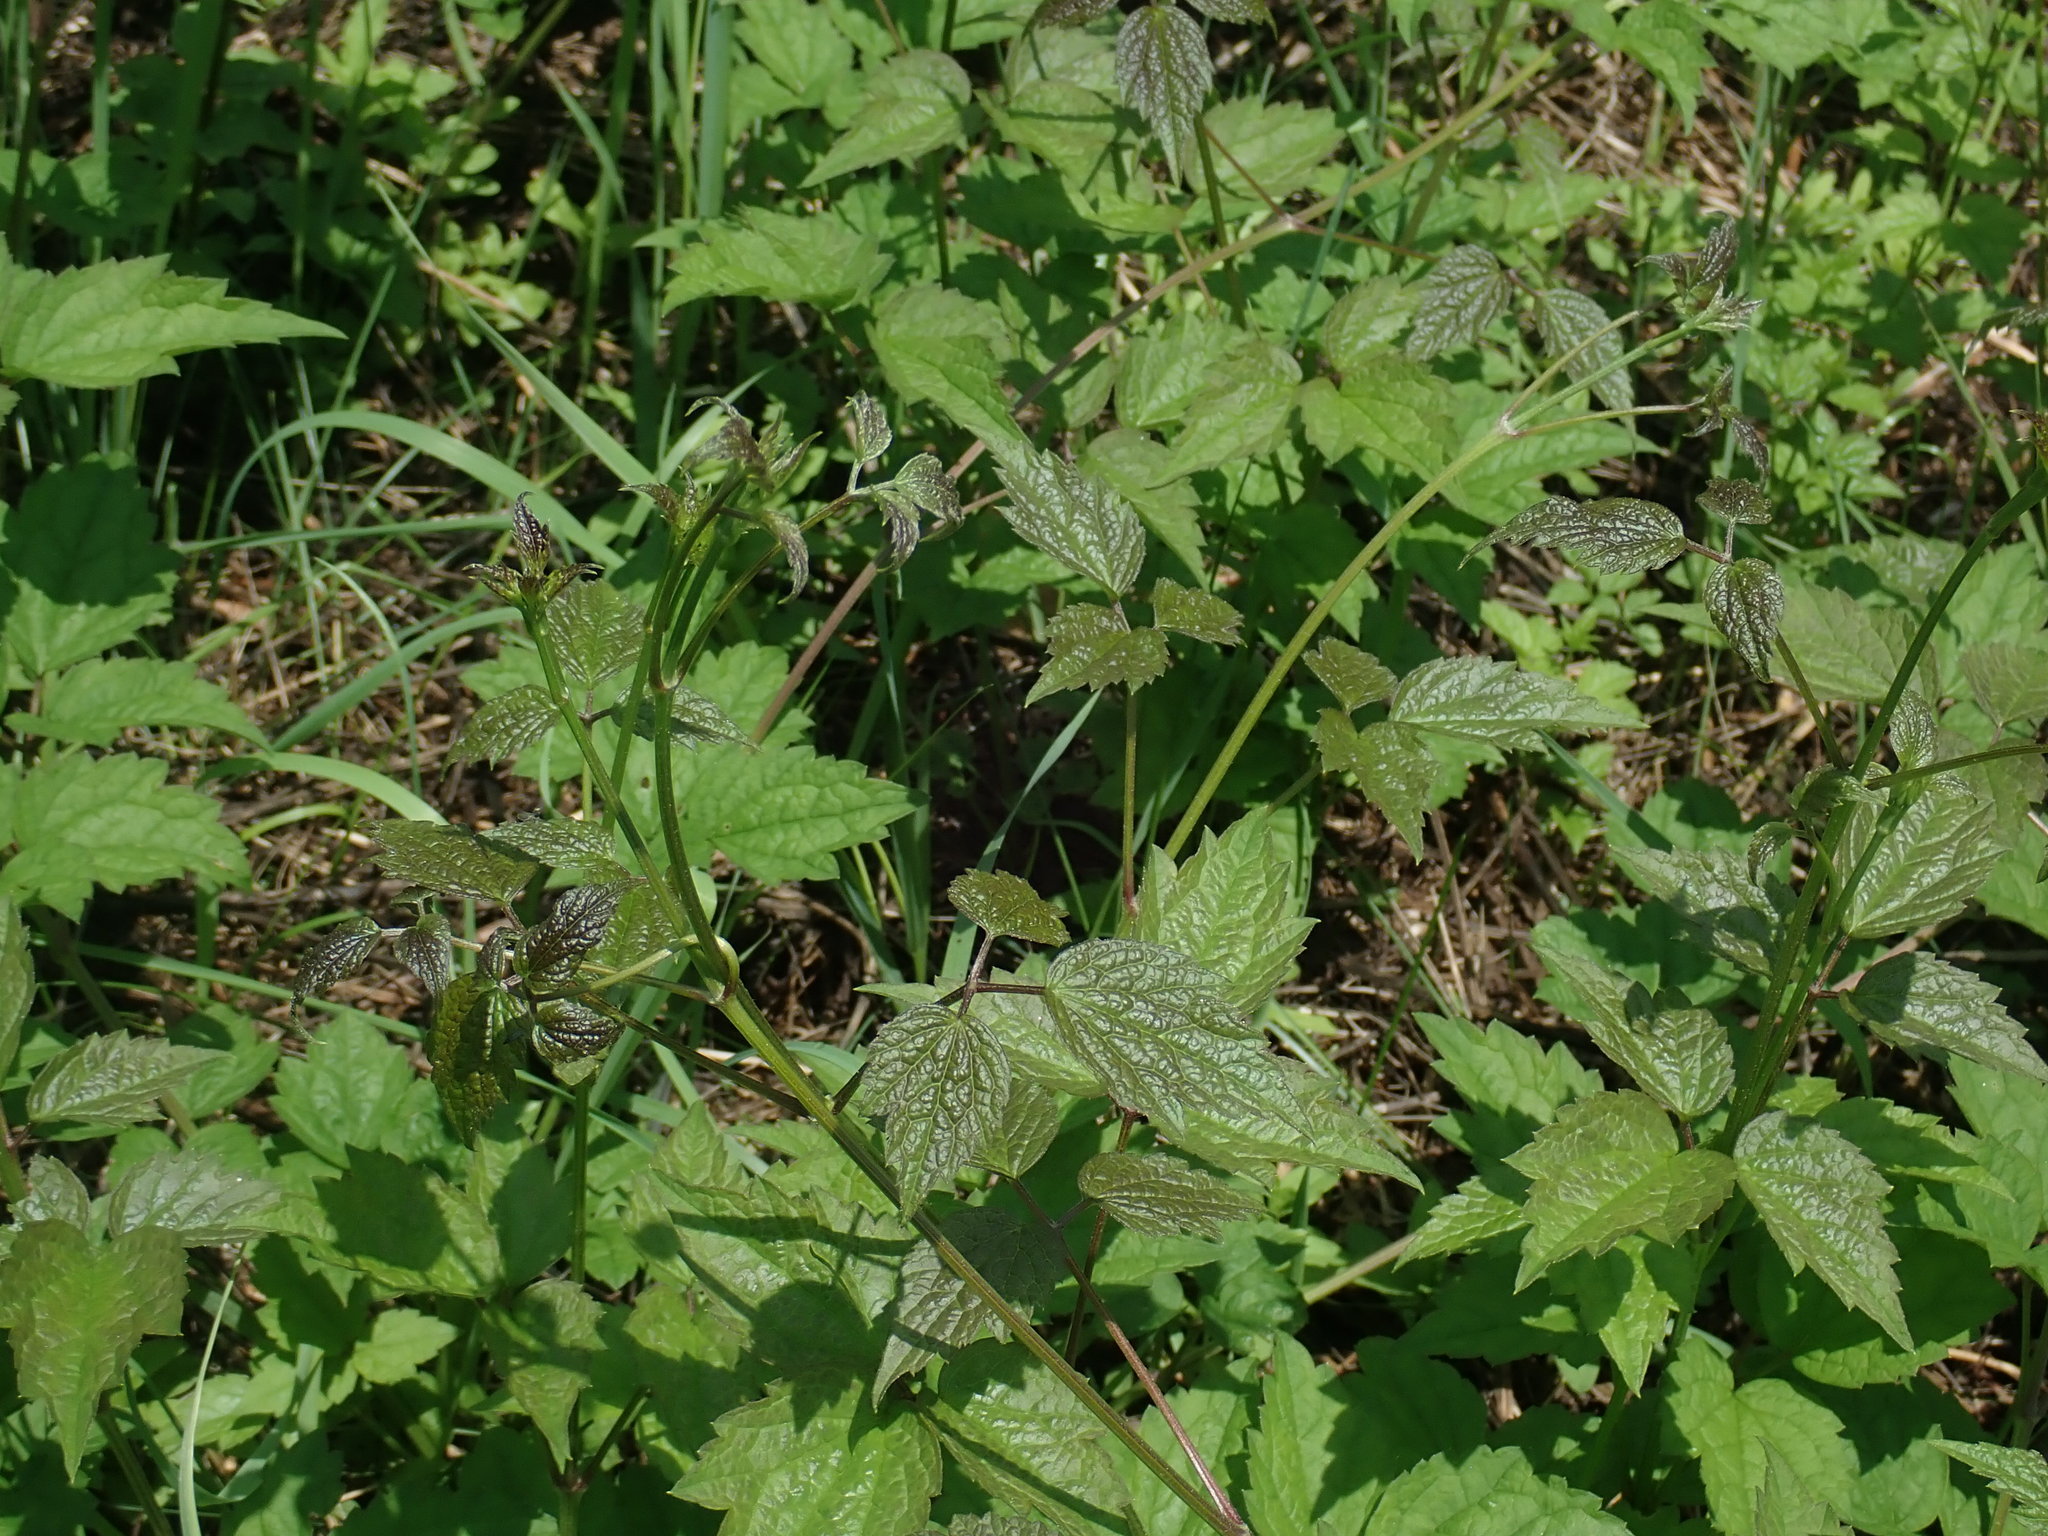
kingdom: Plantae
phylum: Tracheophyta
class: Magnoliopsida
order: Ranunculales
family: Ranunculaceae
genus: Clematis
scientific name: Clematis virginiana
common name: Virgin's-bower
